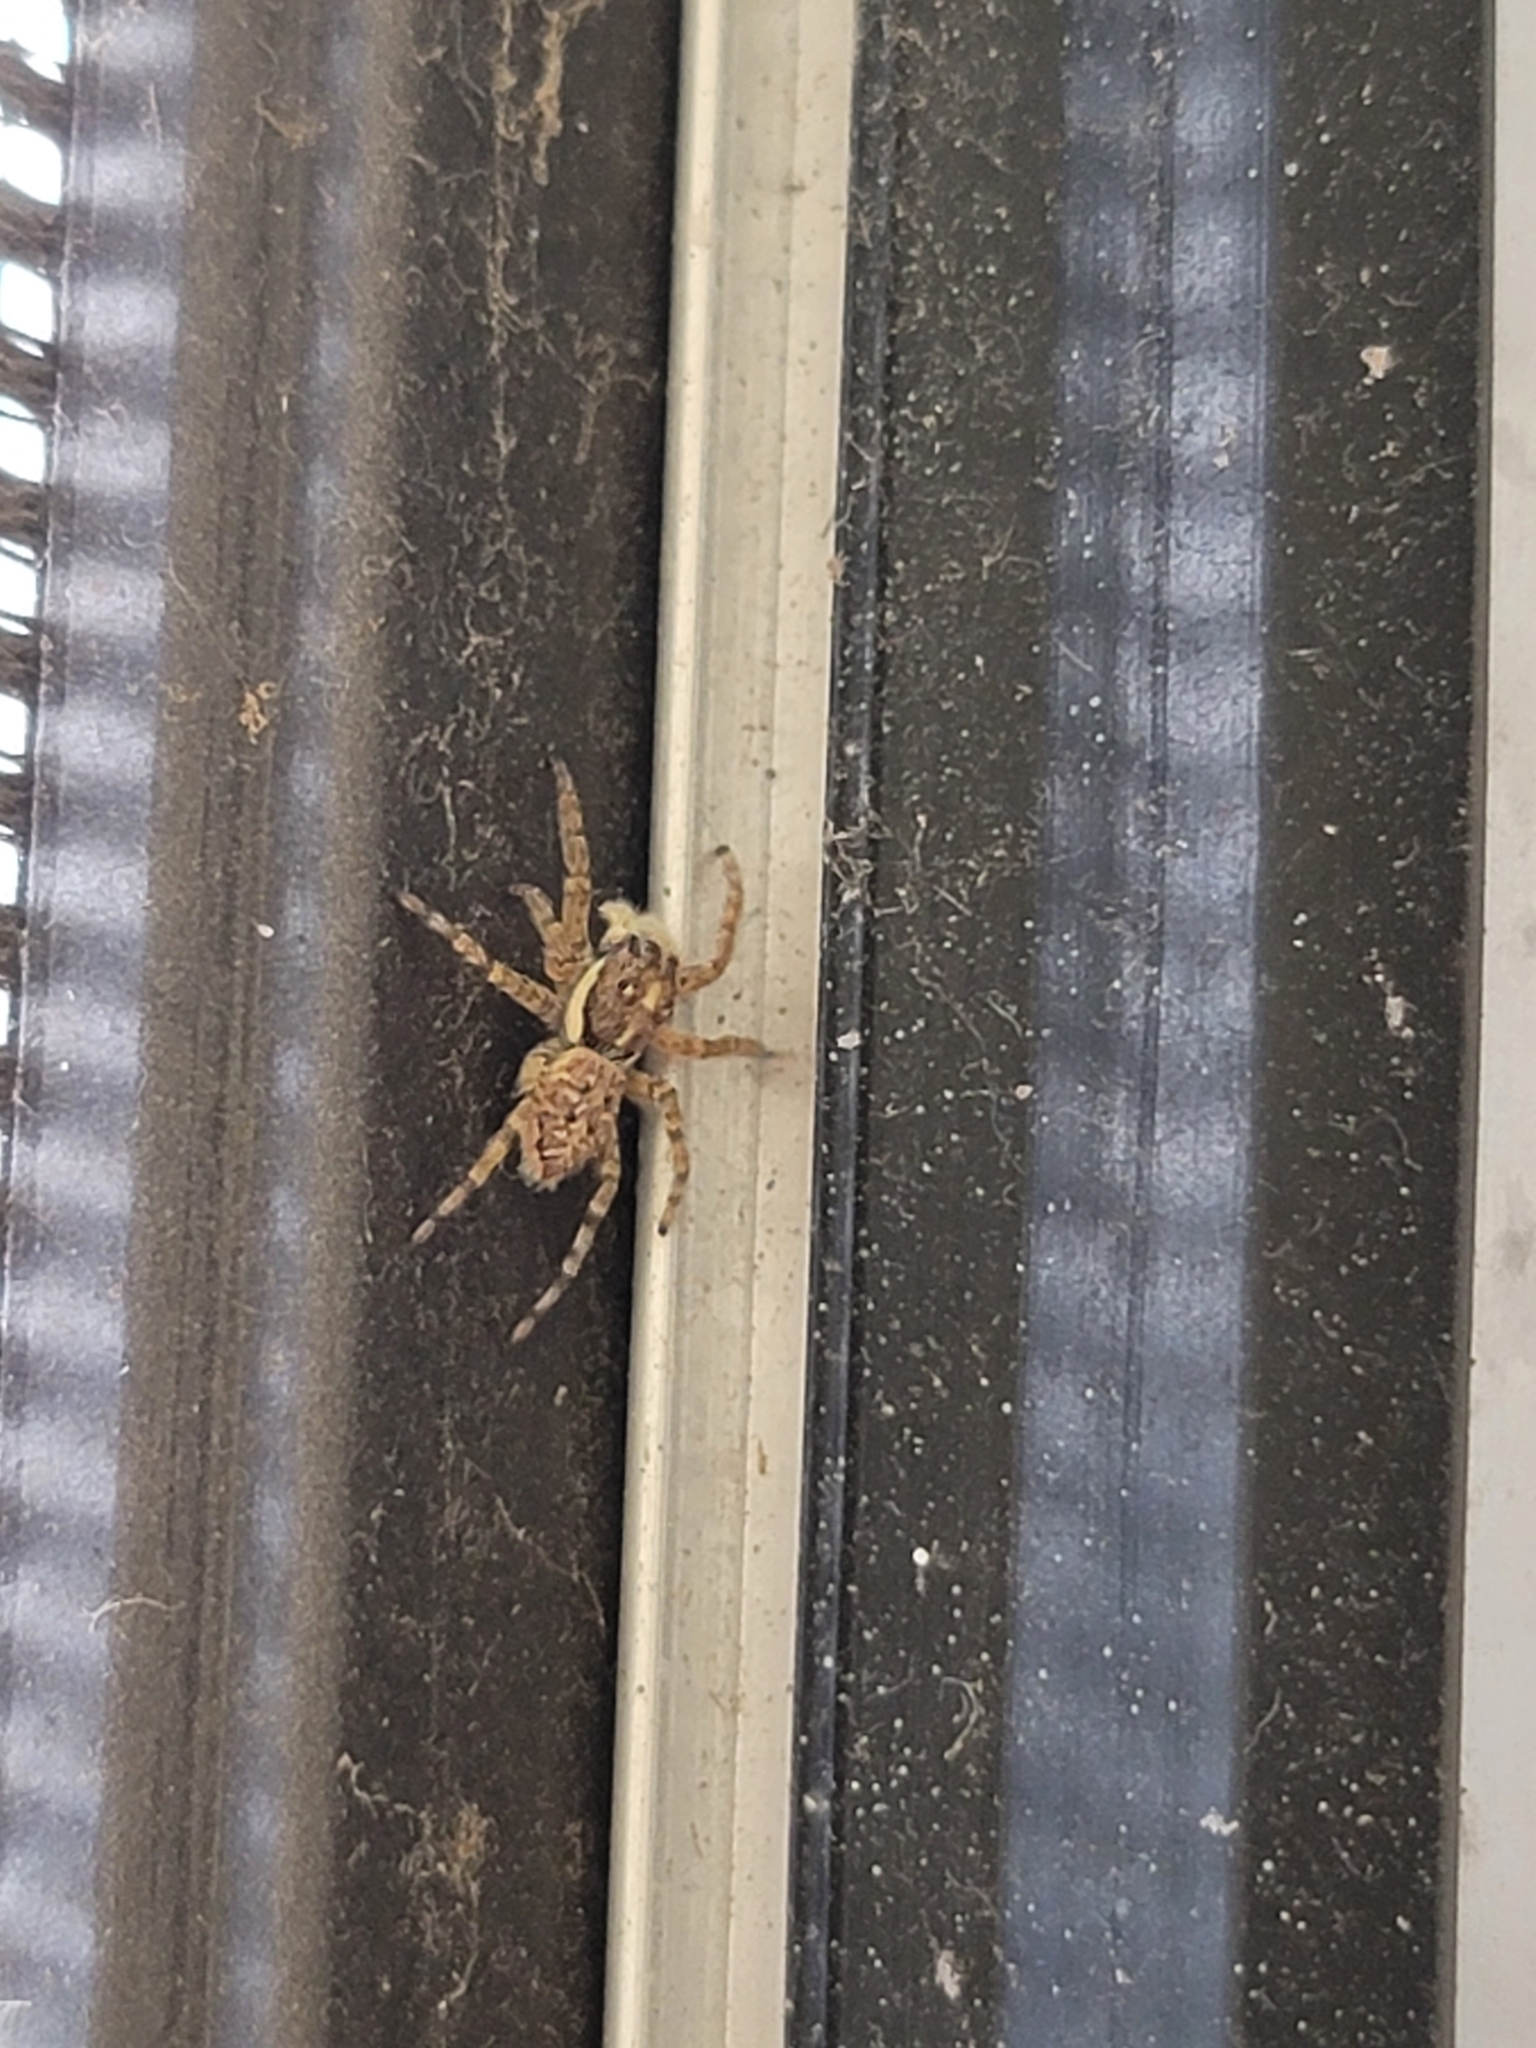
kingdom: Animalia
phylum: Arthropoda
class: Arachnida
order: Araneae
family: Salticidae
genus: Menemerus
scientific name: Menemerus semilimbatus
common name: Jumping spider
